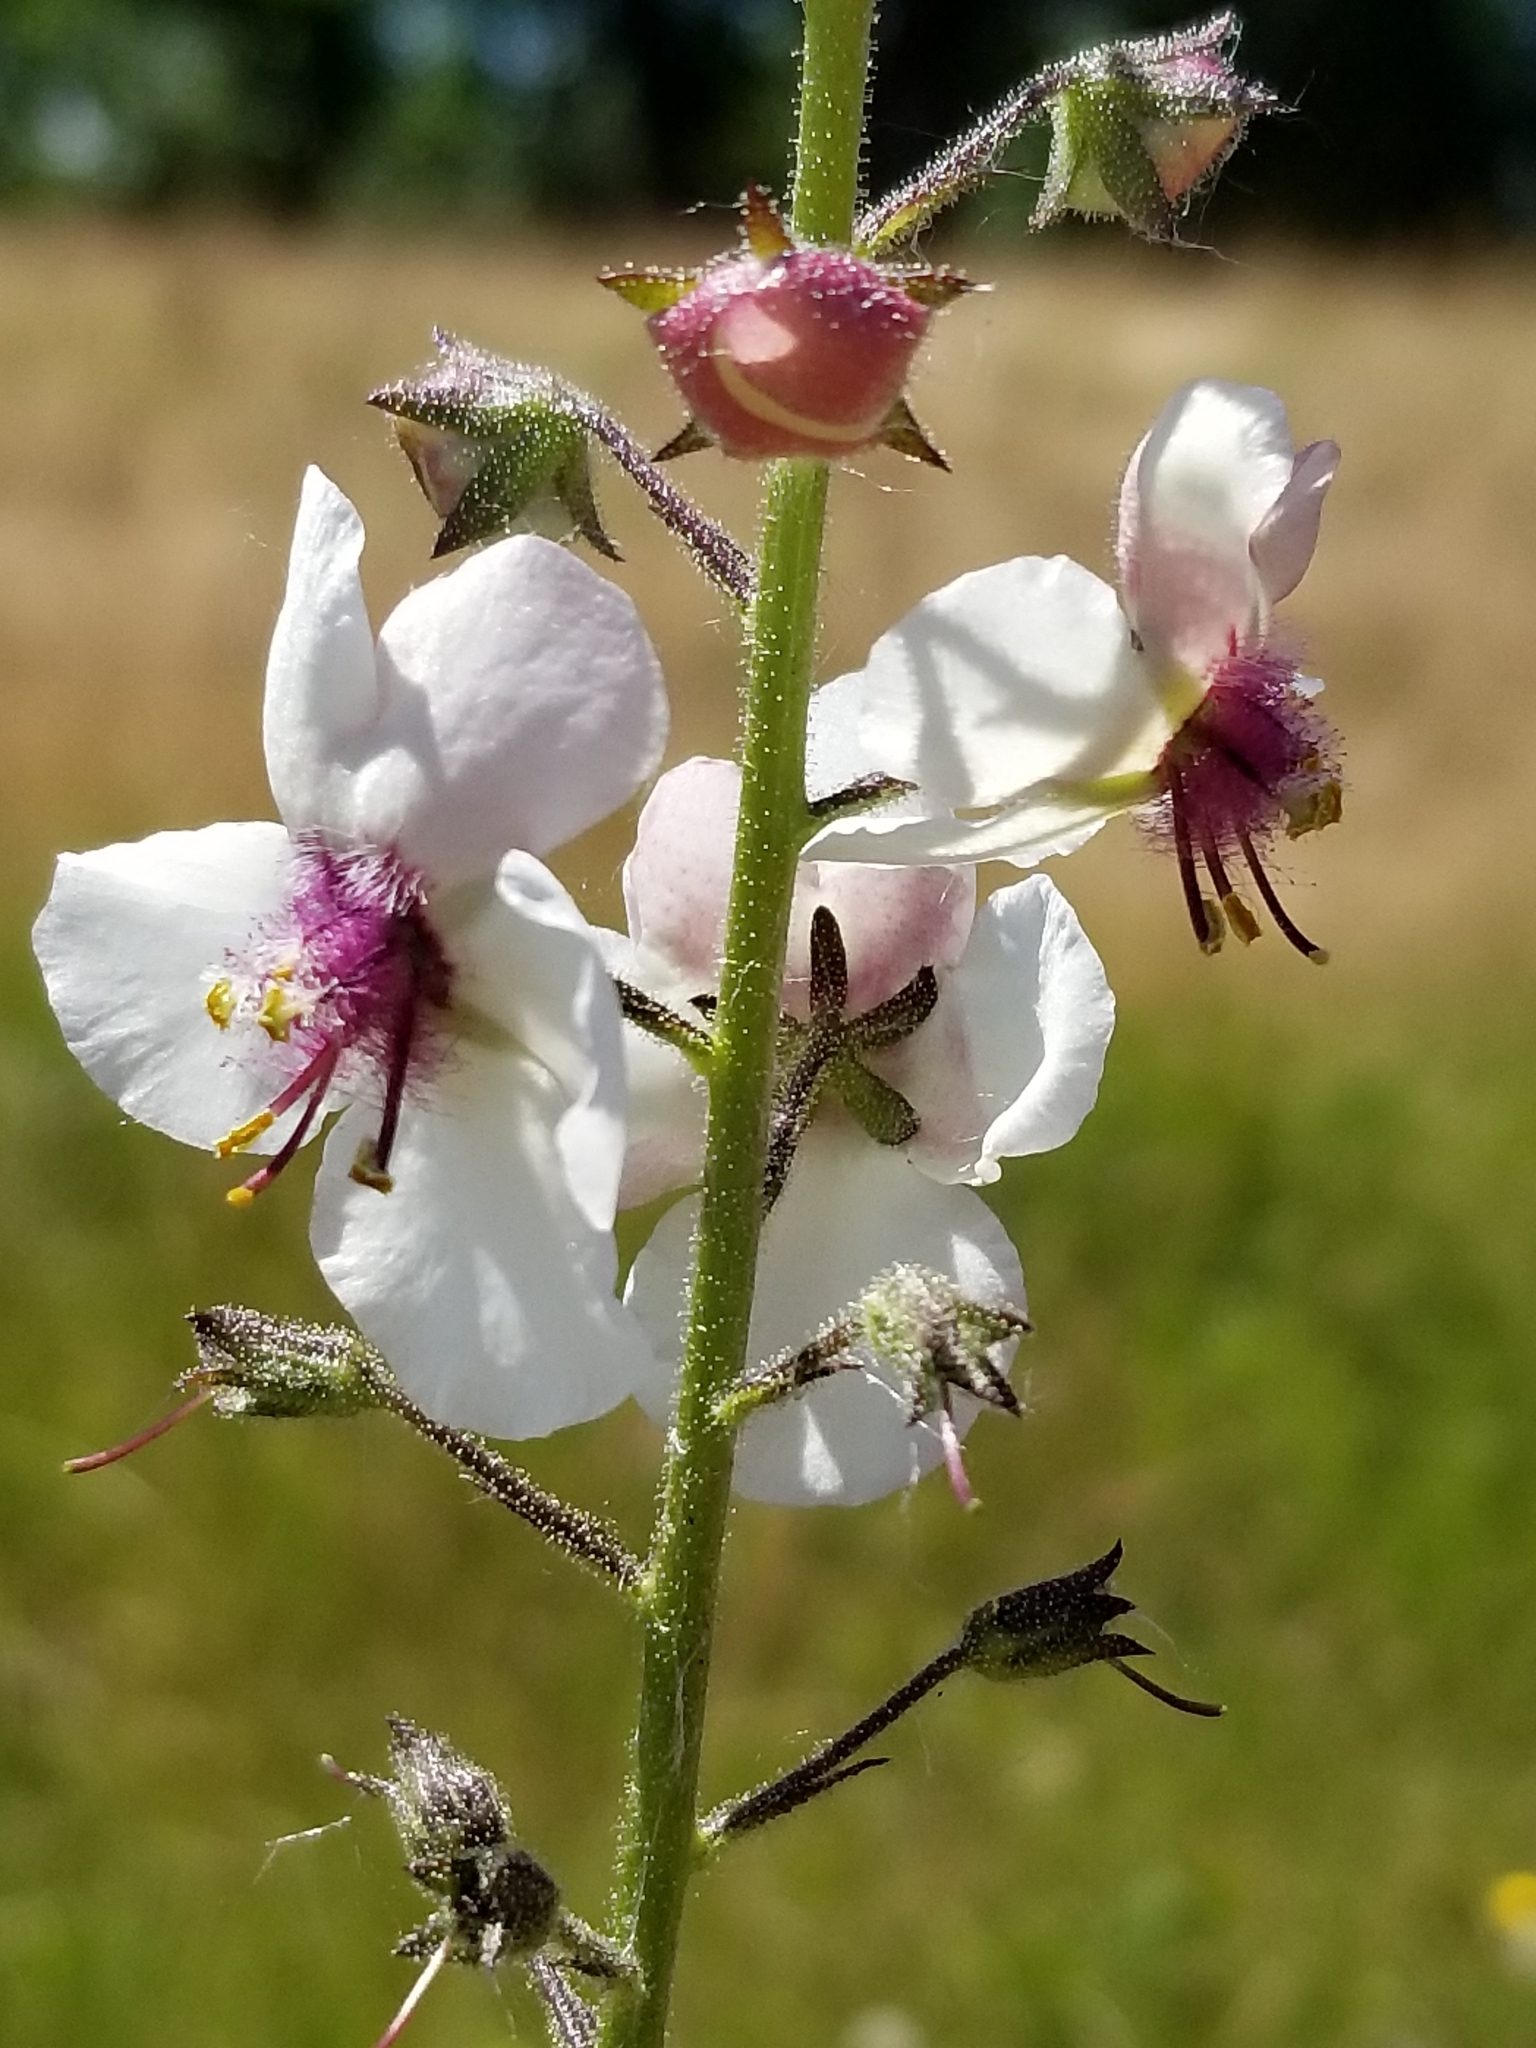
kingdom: Plantae
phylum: Tracheophyta
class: Magnoliopsida
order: Lamiales
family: Scrophulariaceae
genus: Verbascum
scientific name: Verbascum blattaria
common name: Moth mullein
